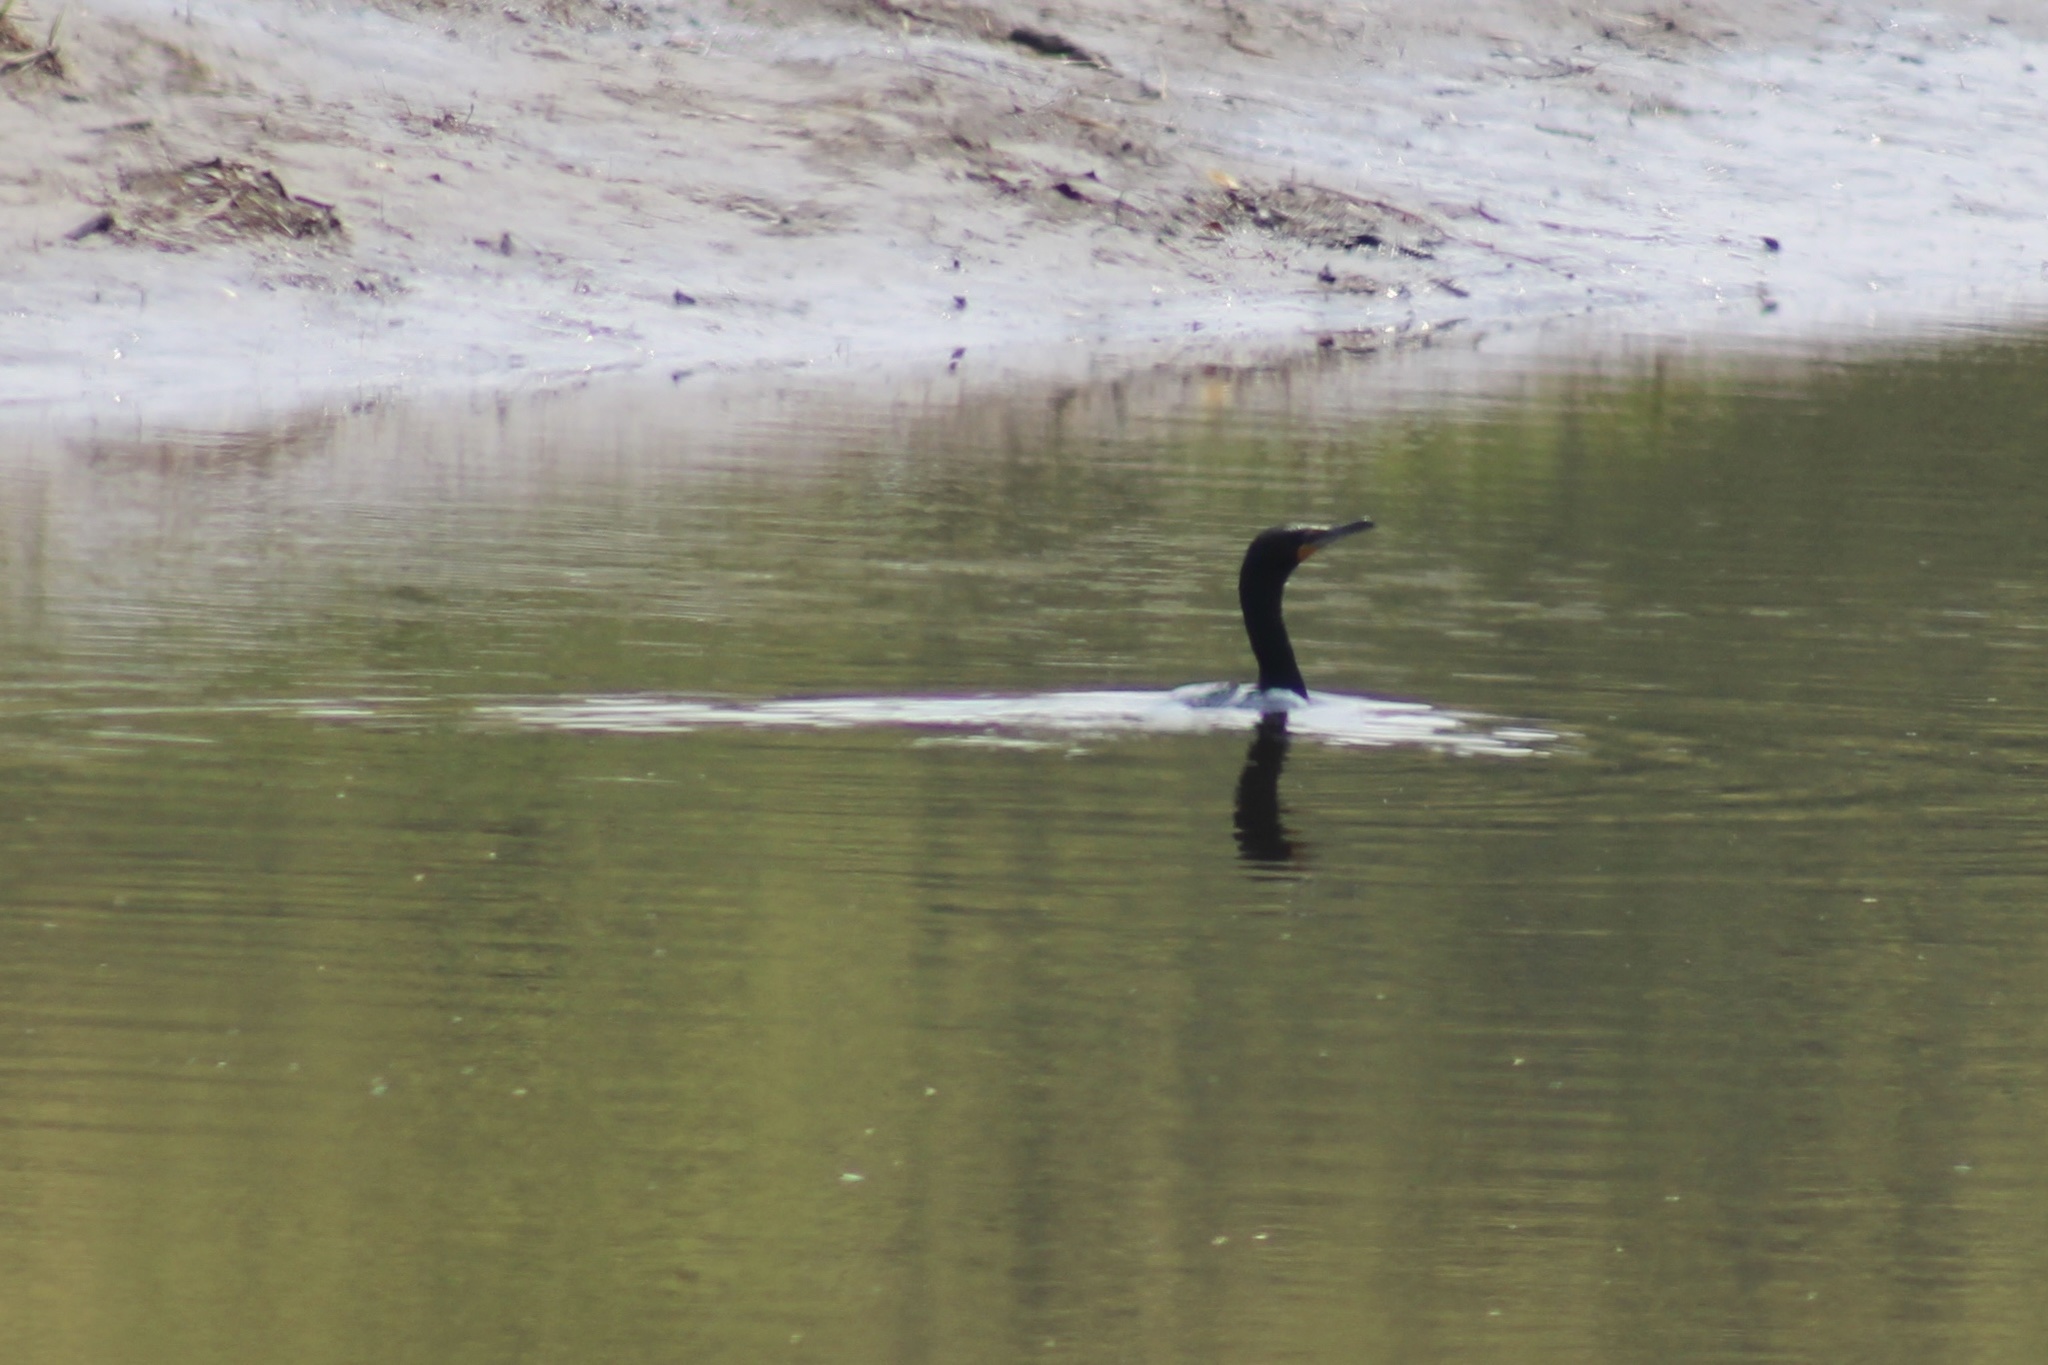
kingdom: Animalia
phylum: Chordata
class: Aves
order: Suliformes
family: Phalacrocoracidae
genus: Phalacrocorax
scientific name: Phalacrocorax auritus
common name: Double-crested cormorant
